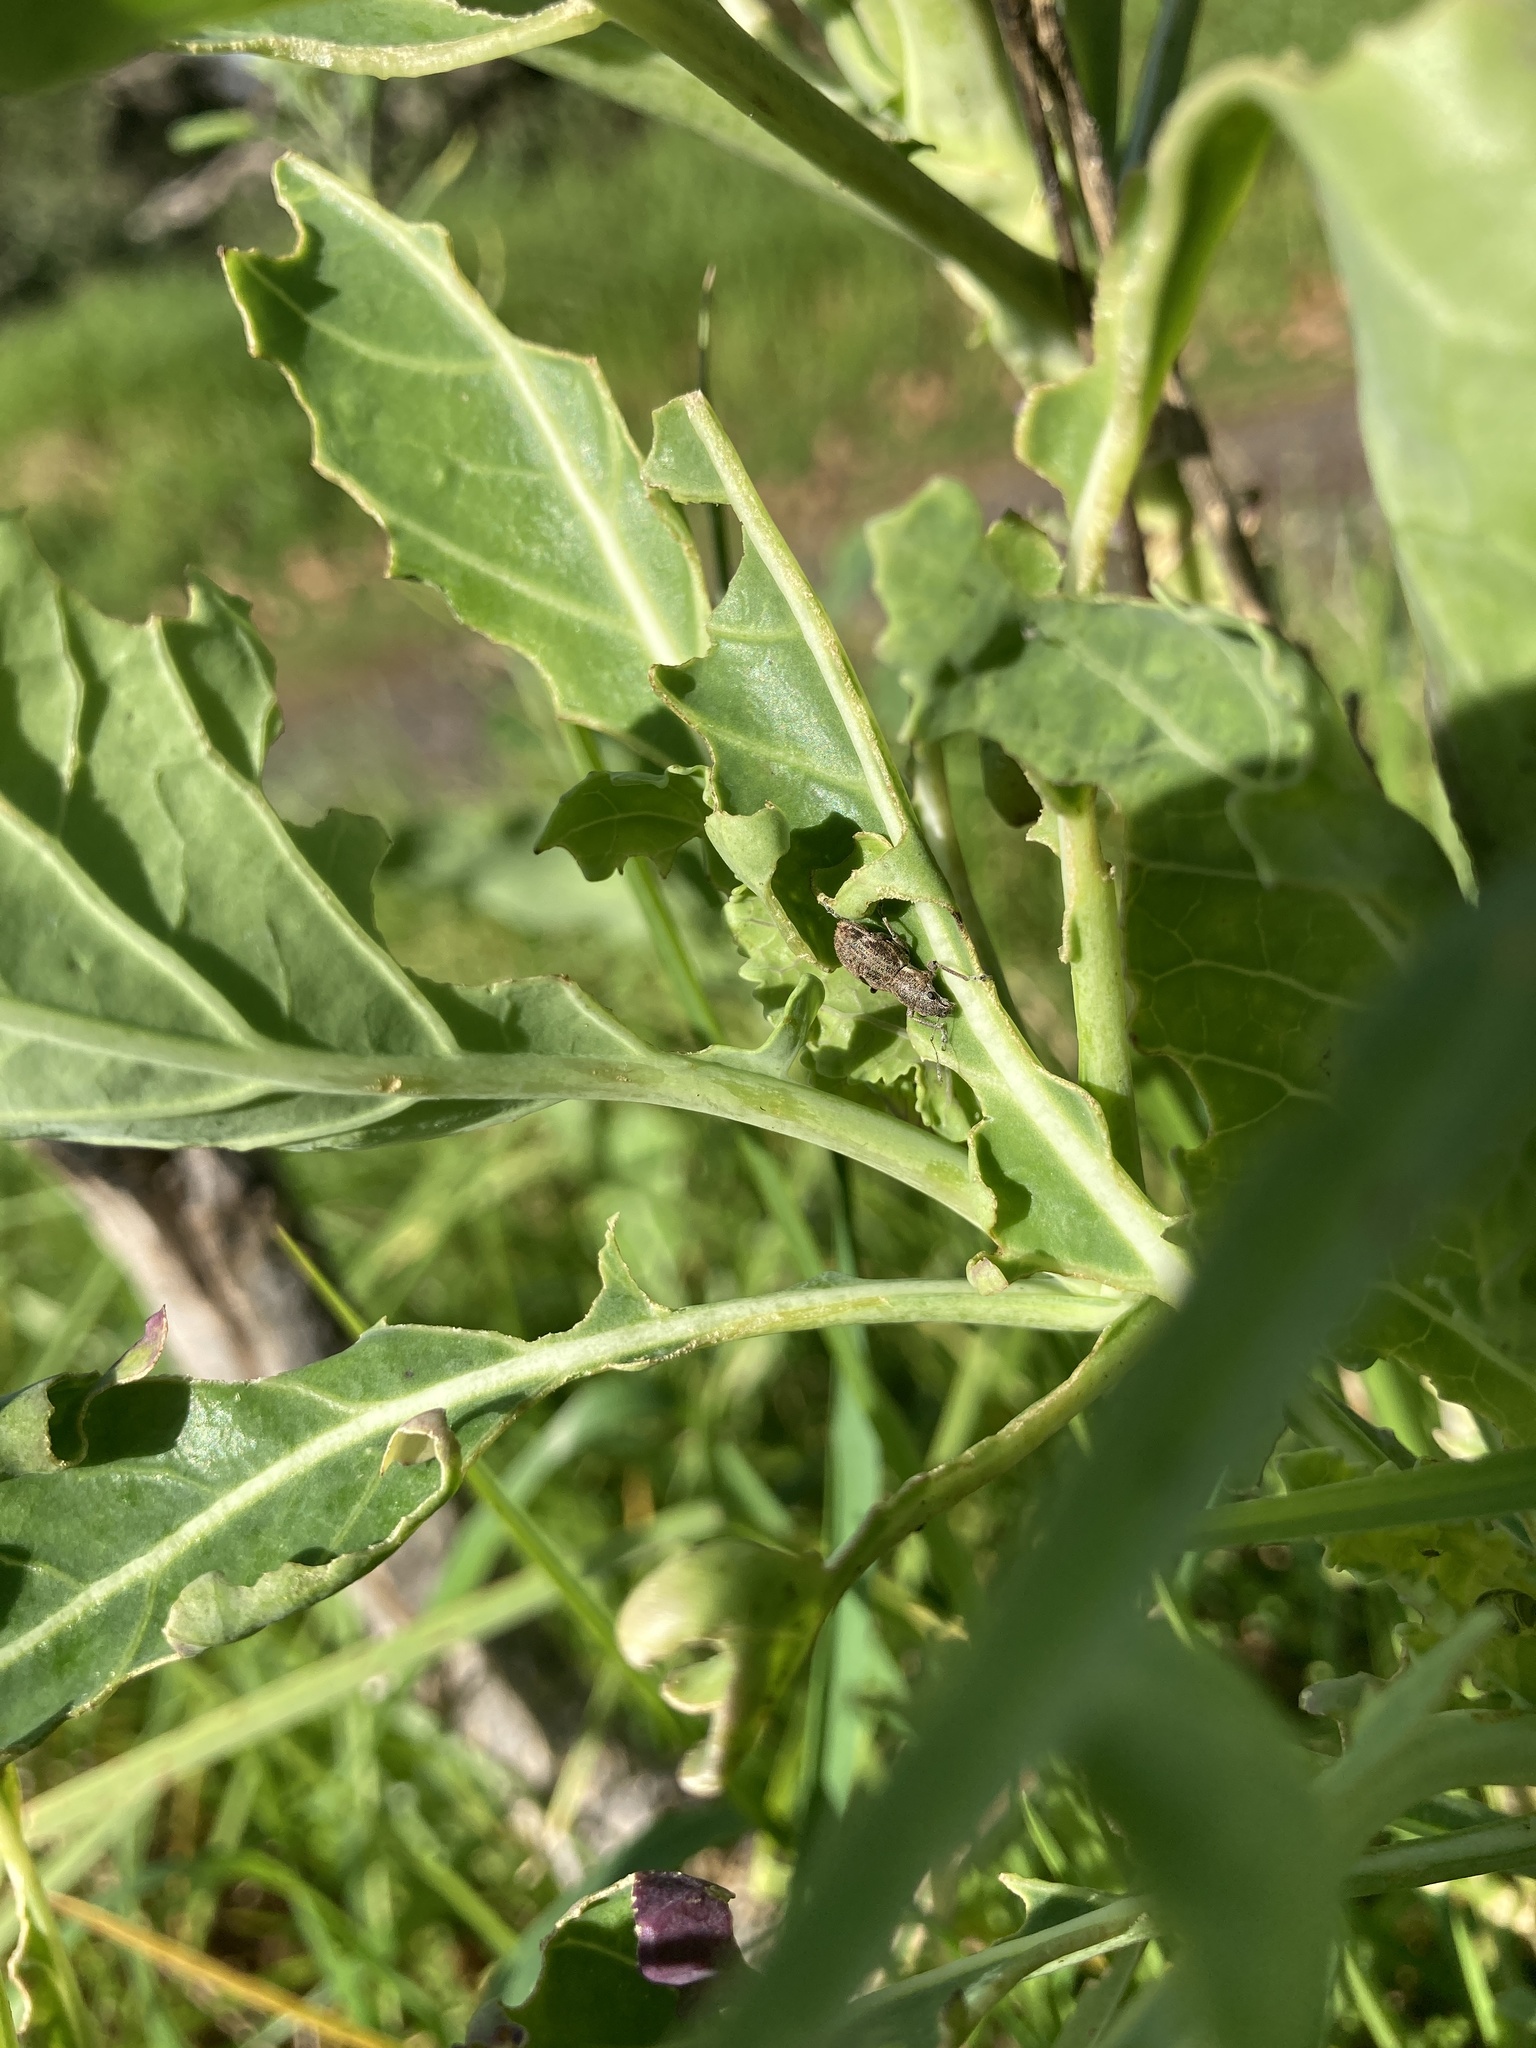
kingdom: Animalia
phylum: Arthropoda
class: Insecta
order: Coleoptera
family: Curculionidae
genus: Naupactus
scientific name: Naupactus cervinus
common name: Fuller rose beetle
